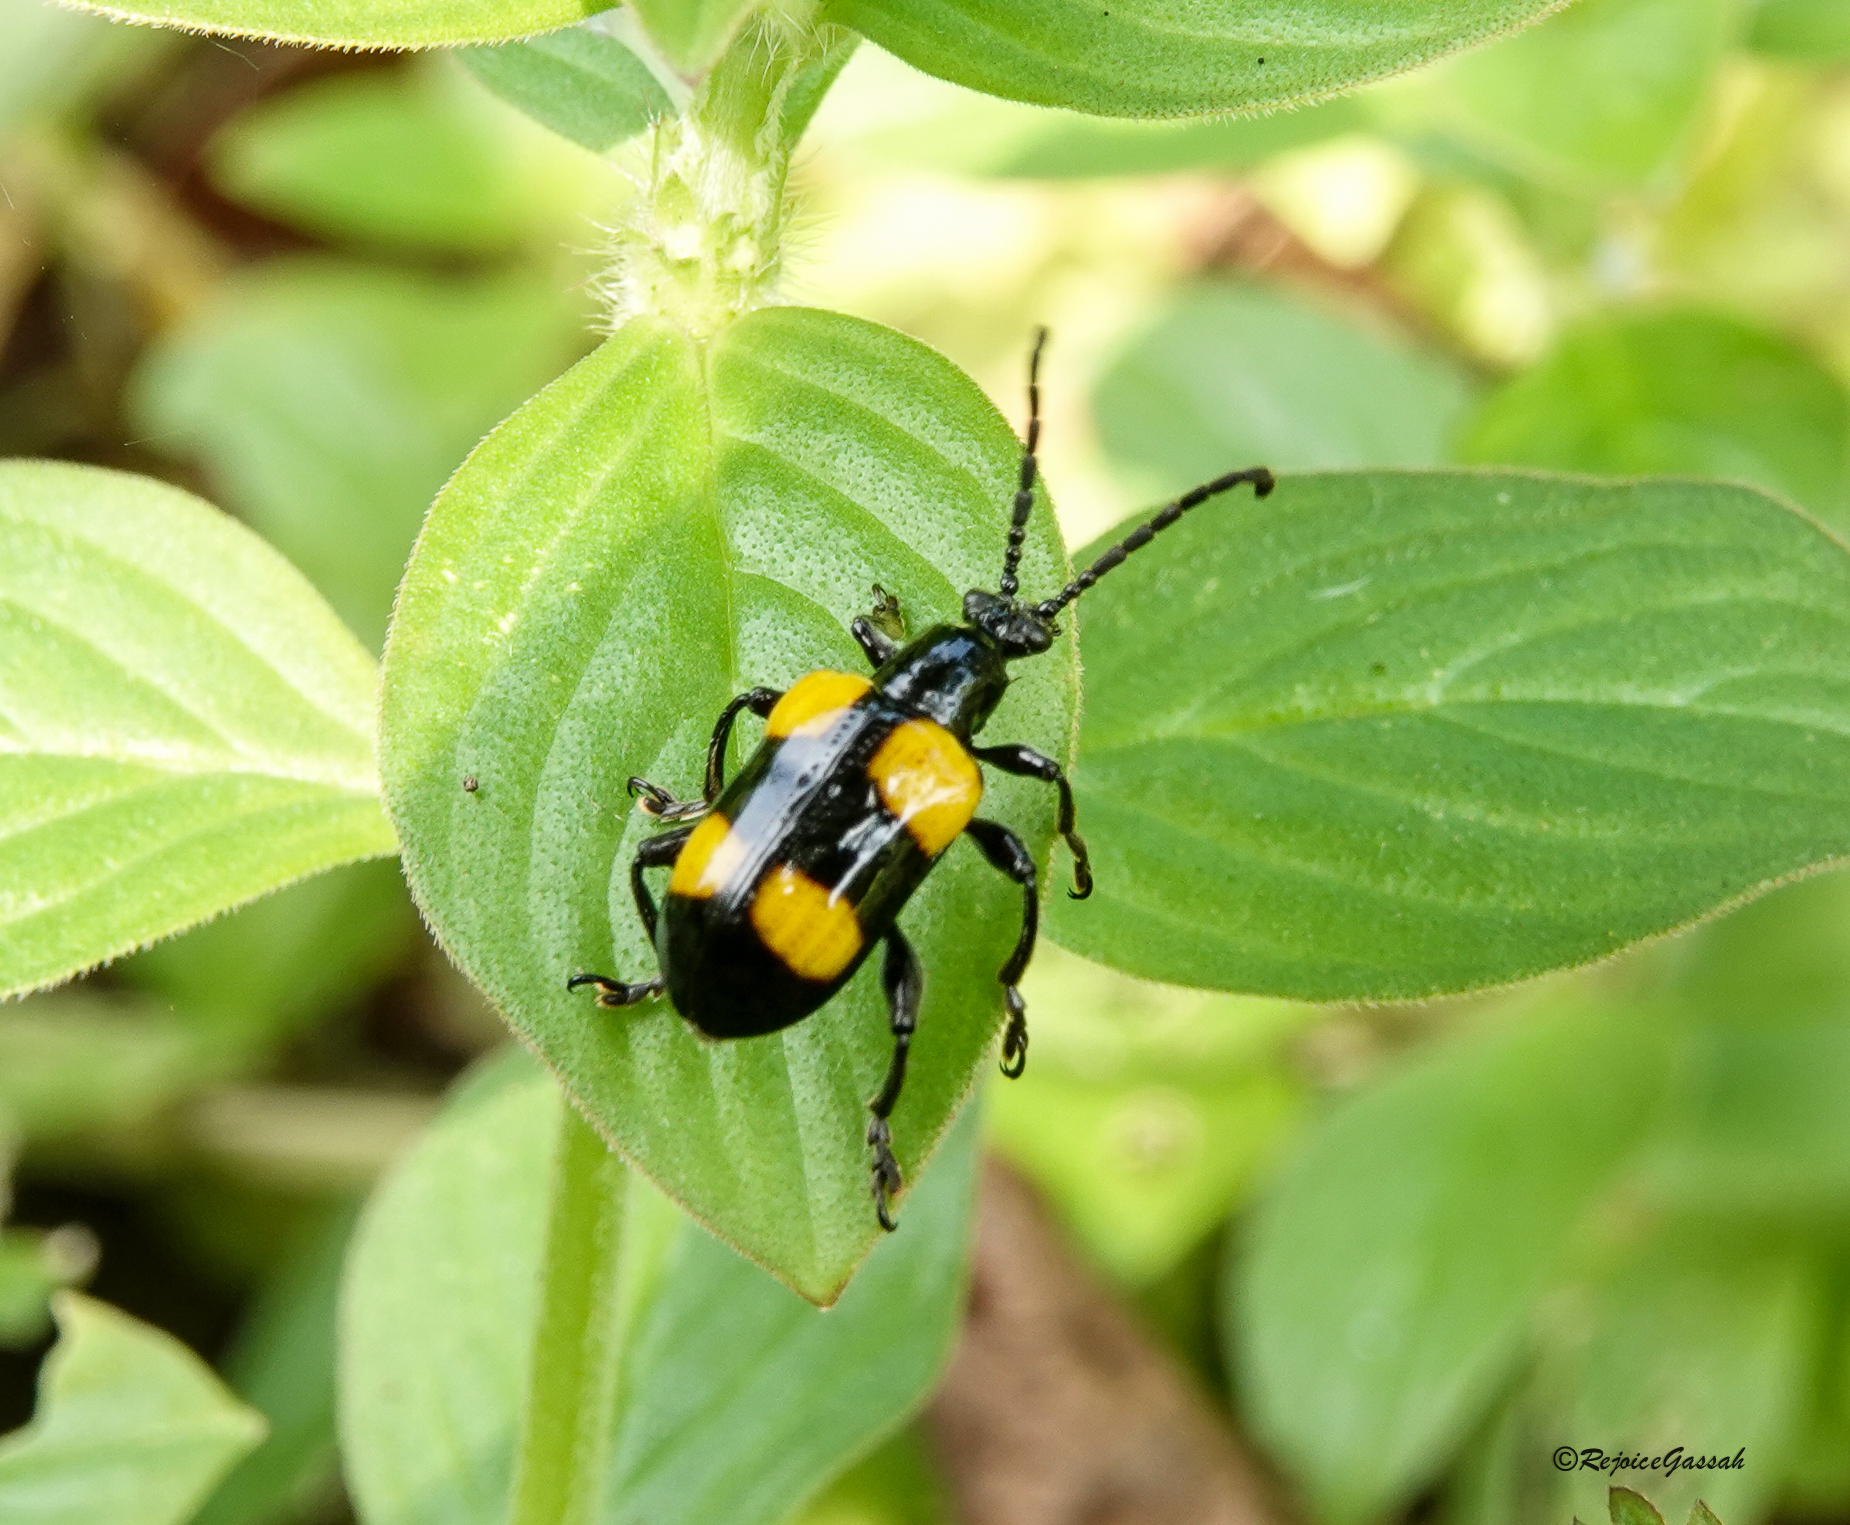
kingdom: Animalia
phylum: Arthropoda
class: Insecta
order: Coleoptera
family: Chrysomelidae
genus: Lilioceris
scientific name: Lilioceris
